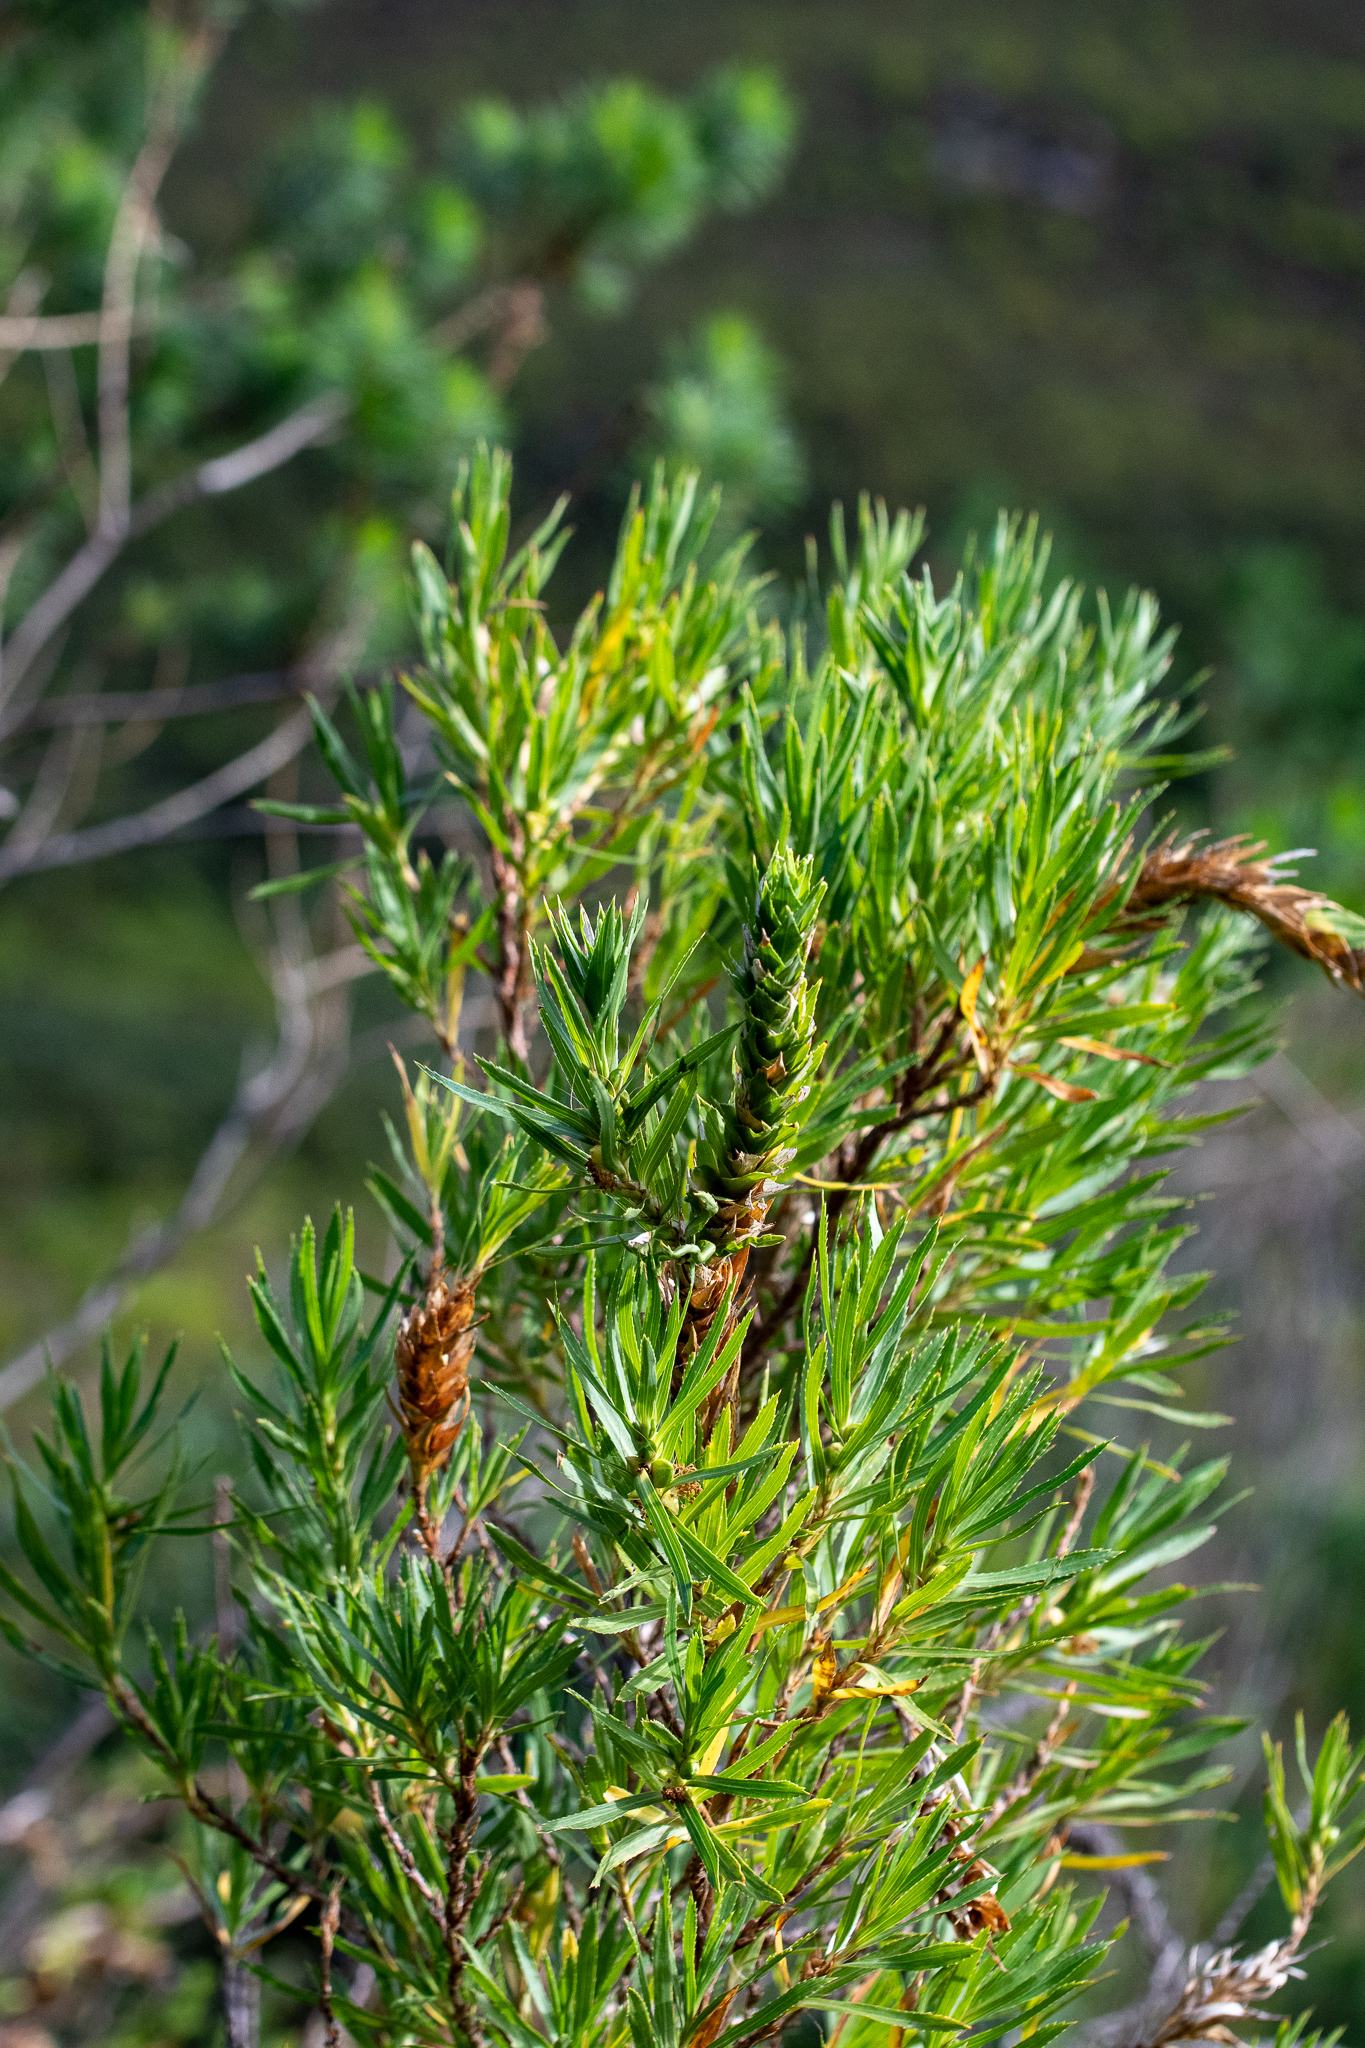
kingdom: Plantae
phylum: Tracheophyta
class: Magnoliopsida
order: Rosales
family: Rosaceae
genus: Cliffortia
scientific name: Cliffortia heterophylla
